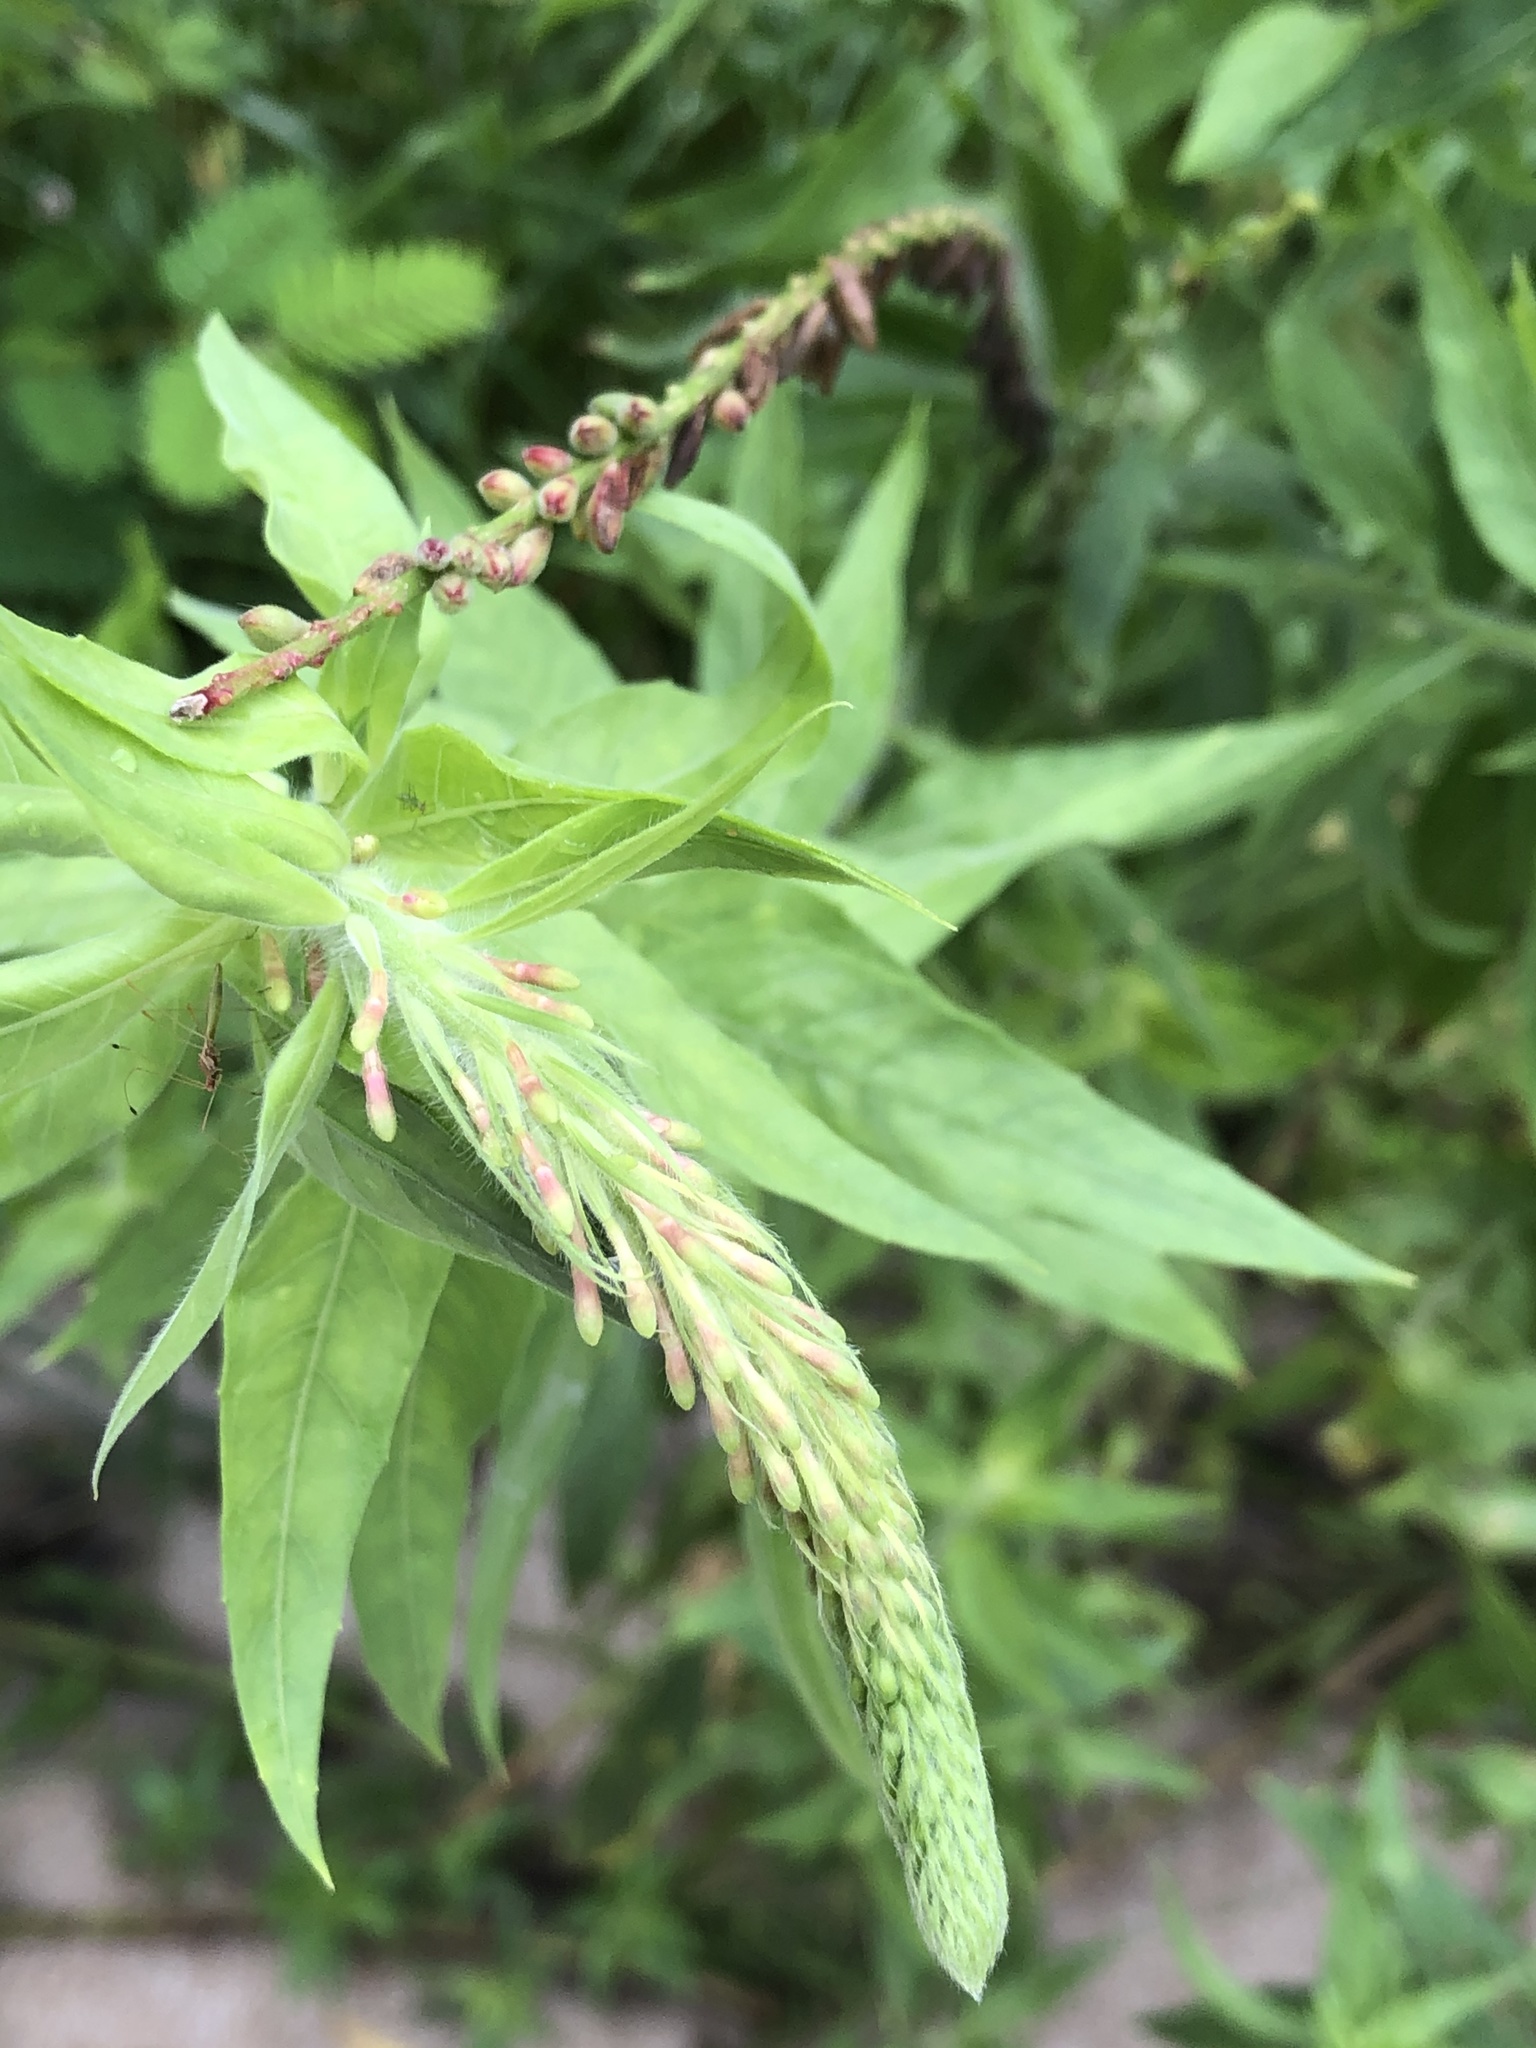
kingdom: Plantae
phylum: Tracheophyta
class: Magnoliopsida
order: Myrtales
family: Onagraceae
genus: Oenothera
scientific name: Oenothera curtiflora
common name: Velvetweed
